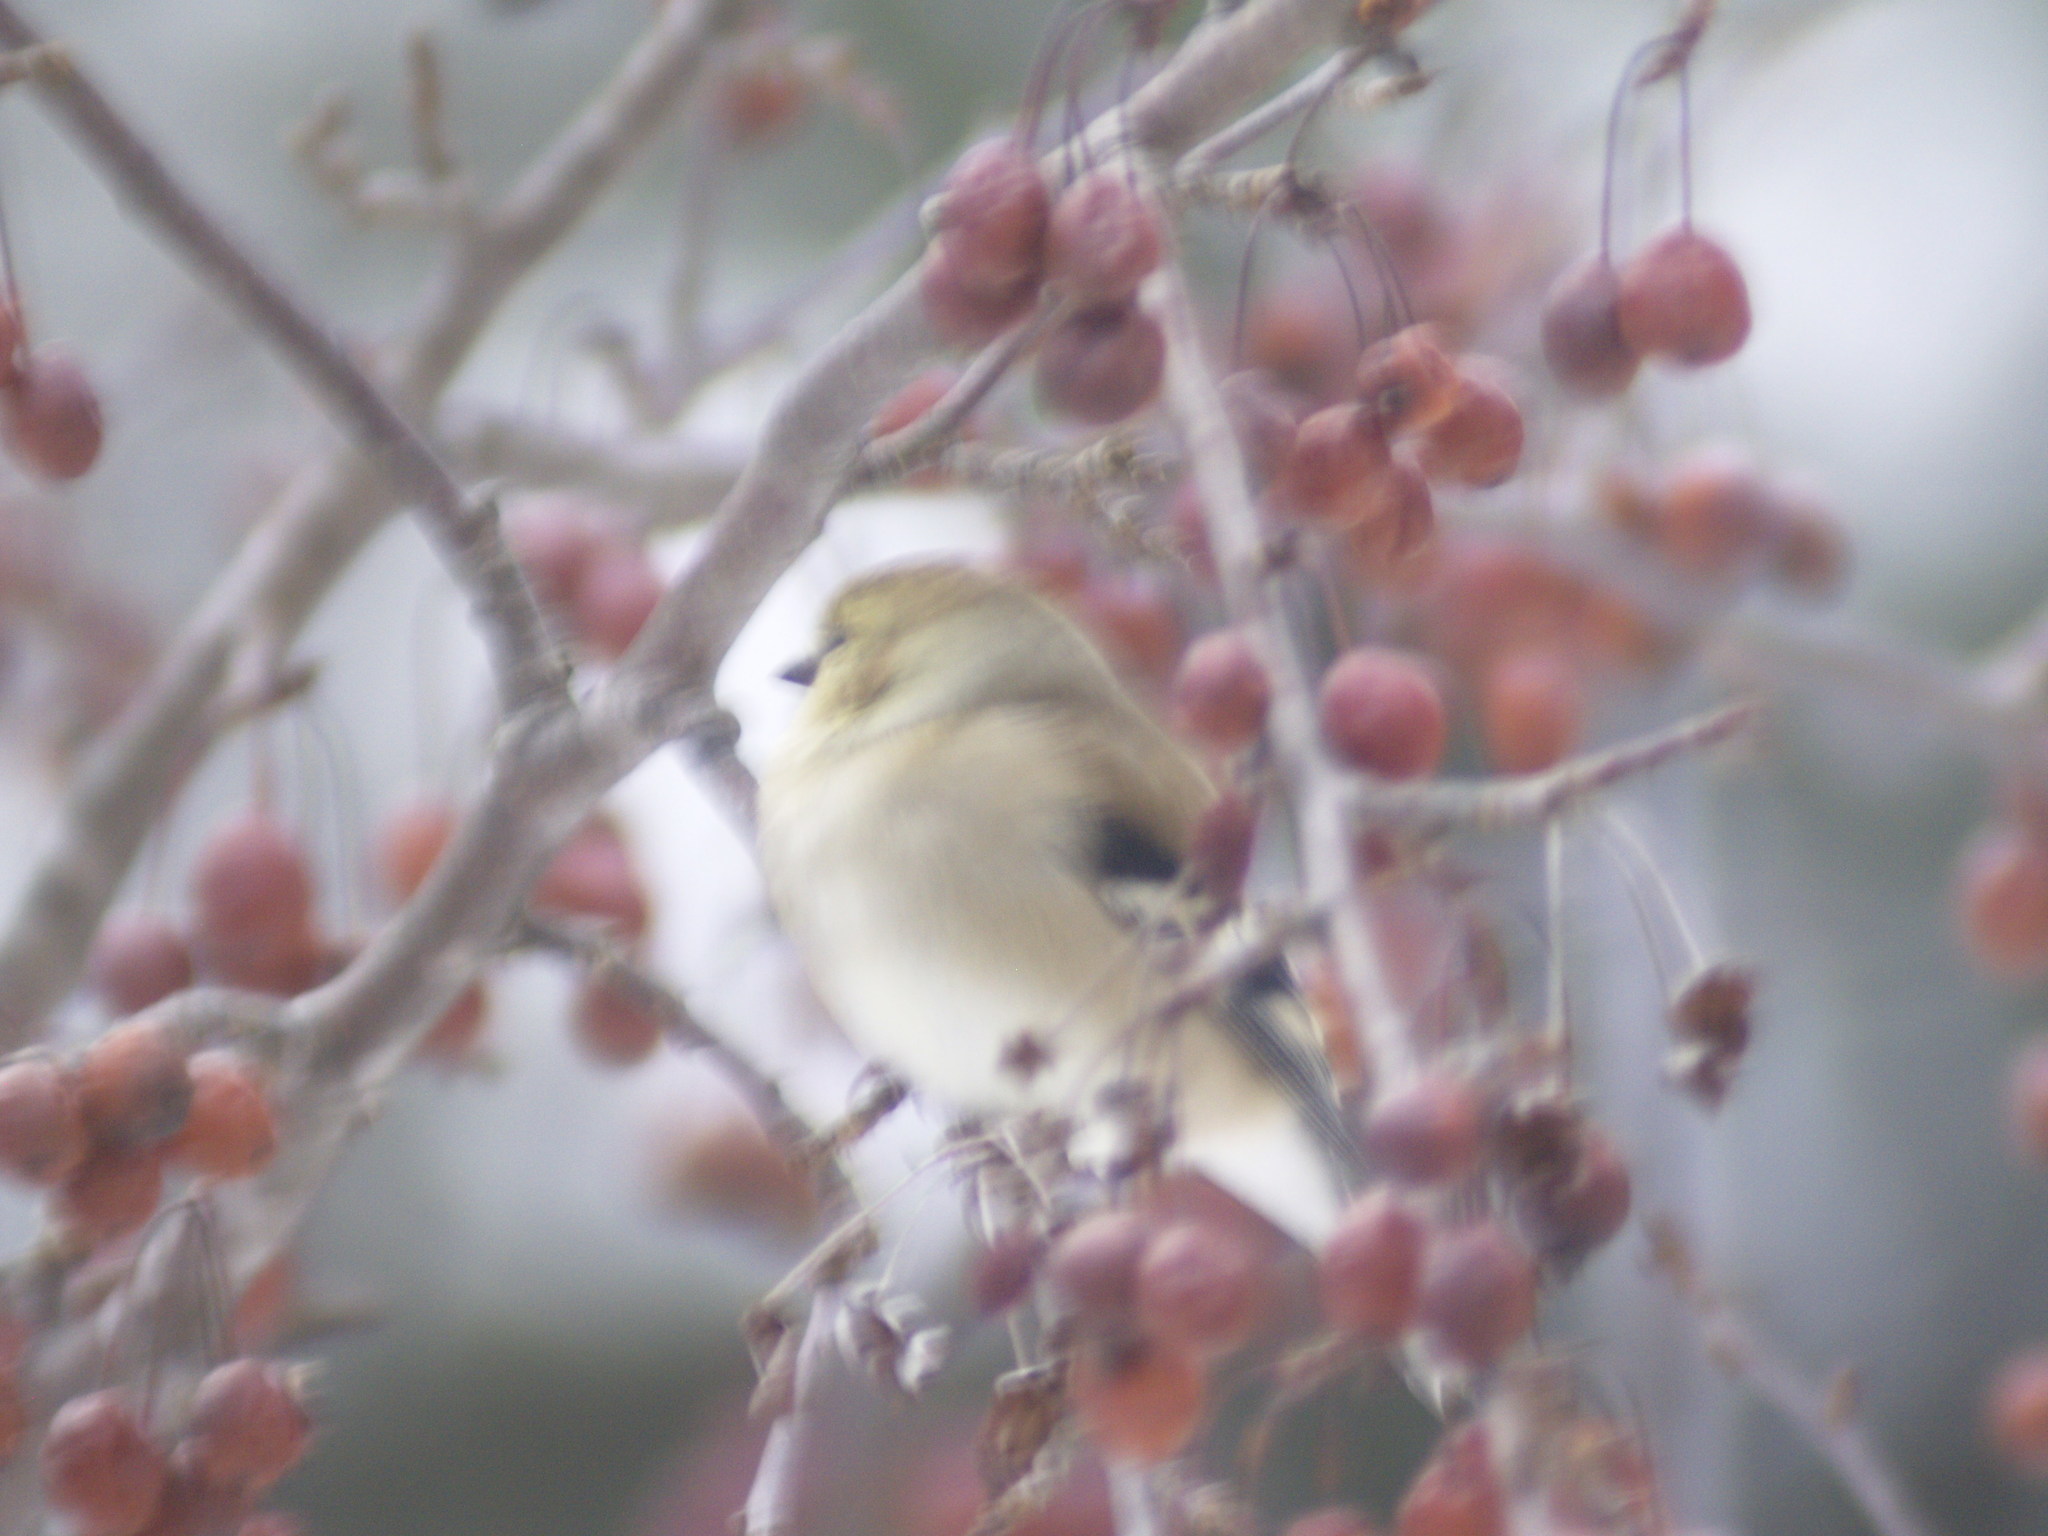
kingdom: Animalia
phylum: Chordata
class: Aves
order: Passeriformes
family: Fringillidae
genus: Spinus
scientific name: Spinus tristis
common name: American goldfinch
